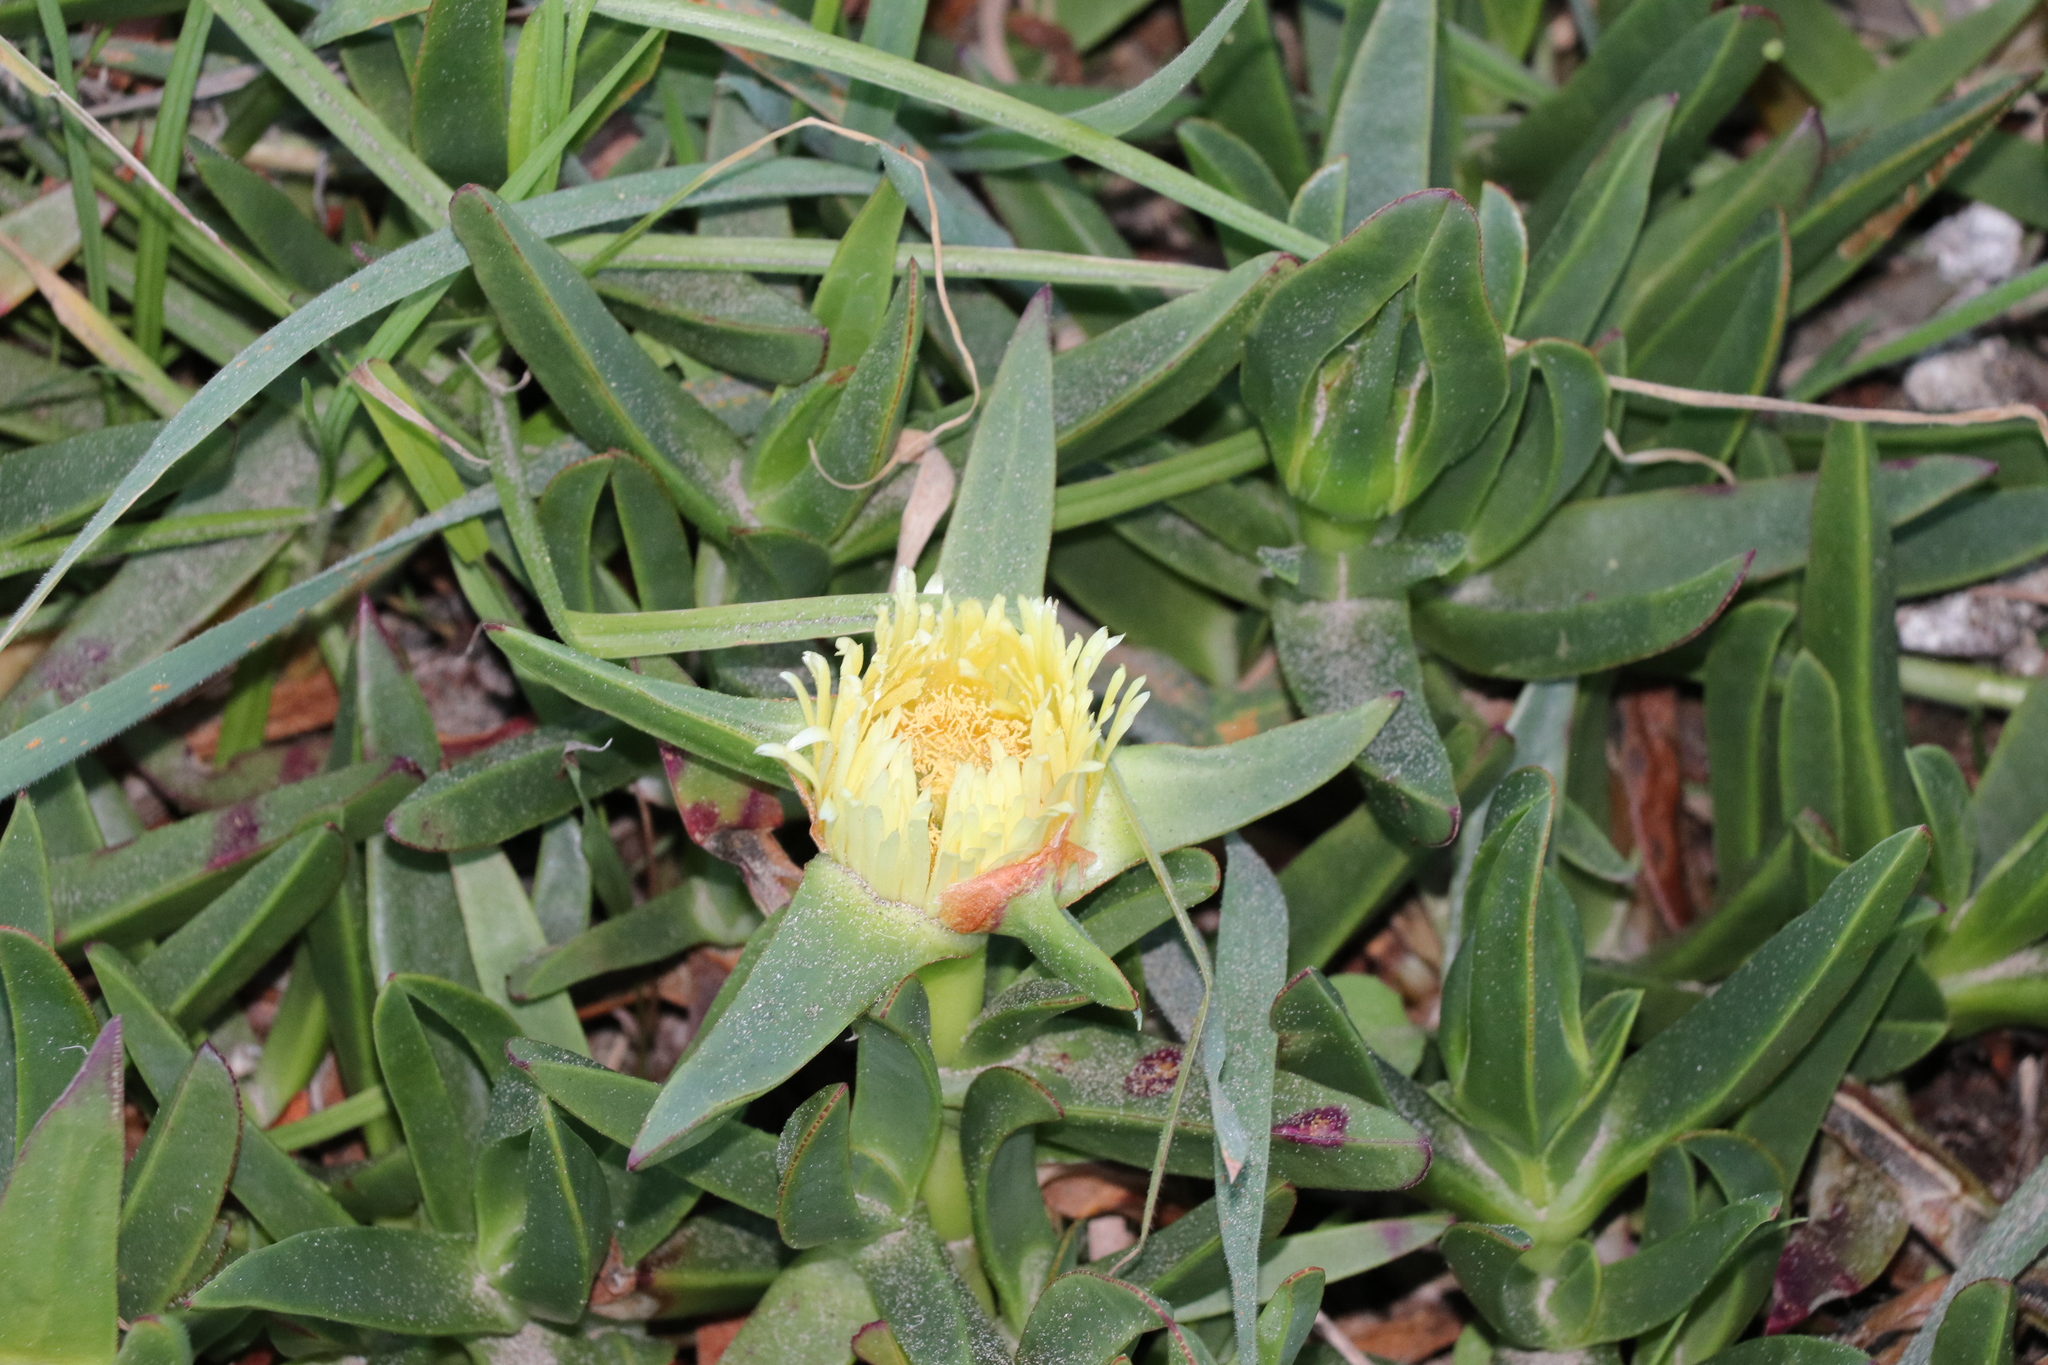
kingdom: Plantae
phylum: Tracheophyta
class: Magnoliopsida
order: Caryophyllales
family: Aizoaceae
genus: Carpobrotus
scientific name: Carpobrotus edulis
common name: Hottentot-fig
